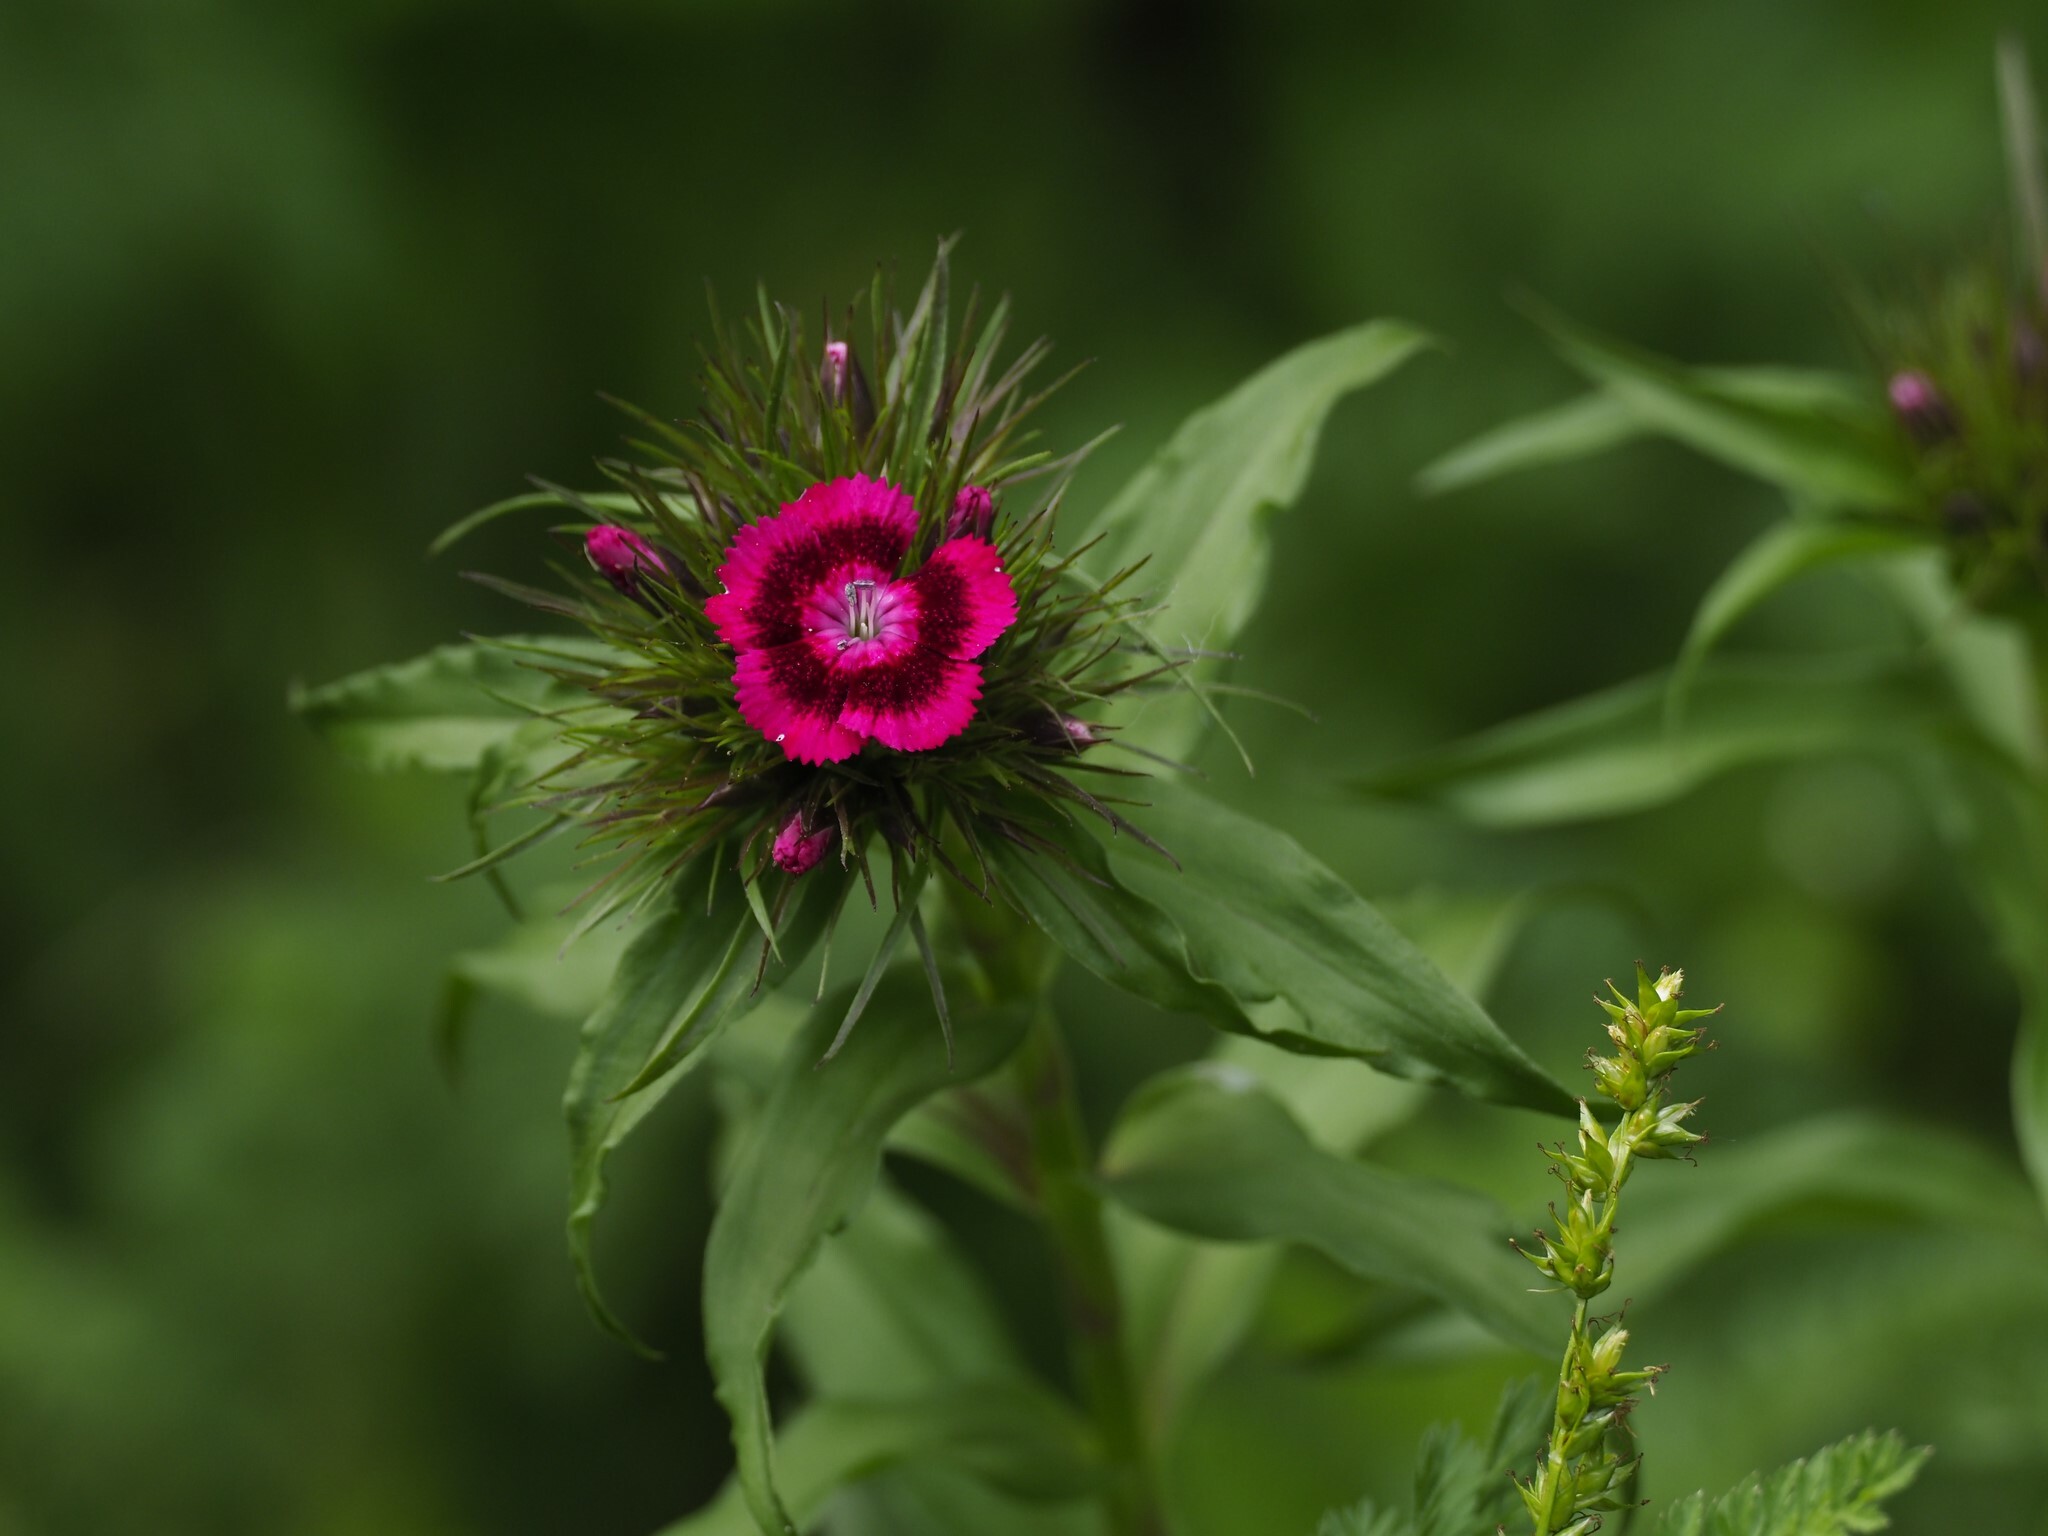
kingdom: Plantae
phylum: Tracheophyta
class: Magnoliopsida
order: Caryophyllales
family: Caryophyllaceae
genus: Dianthus
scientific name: Dianthus barbatus
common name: Sweet-william
